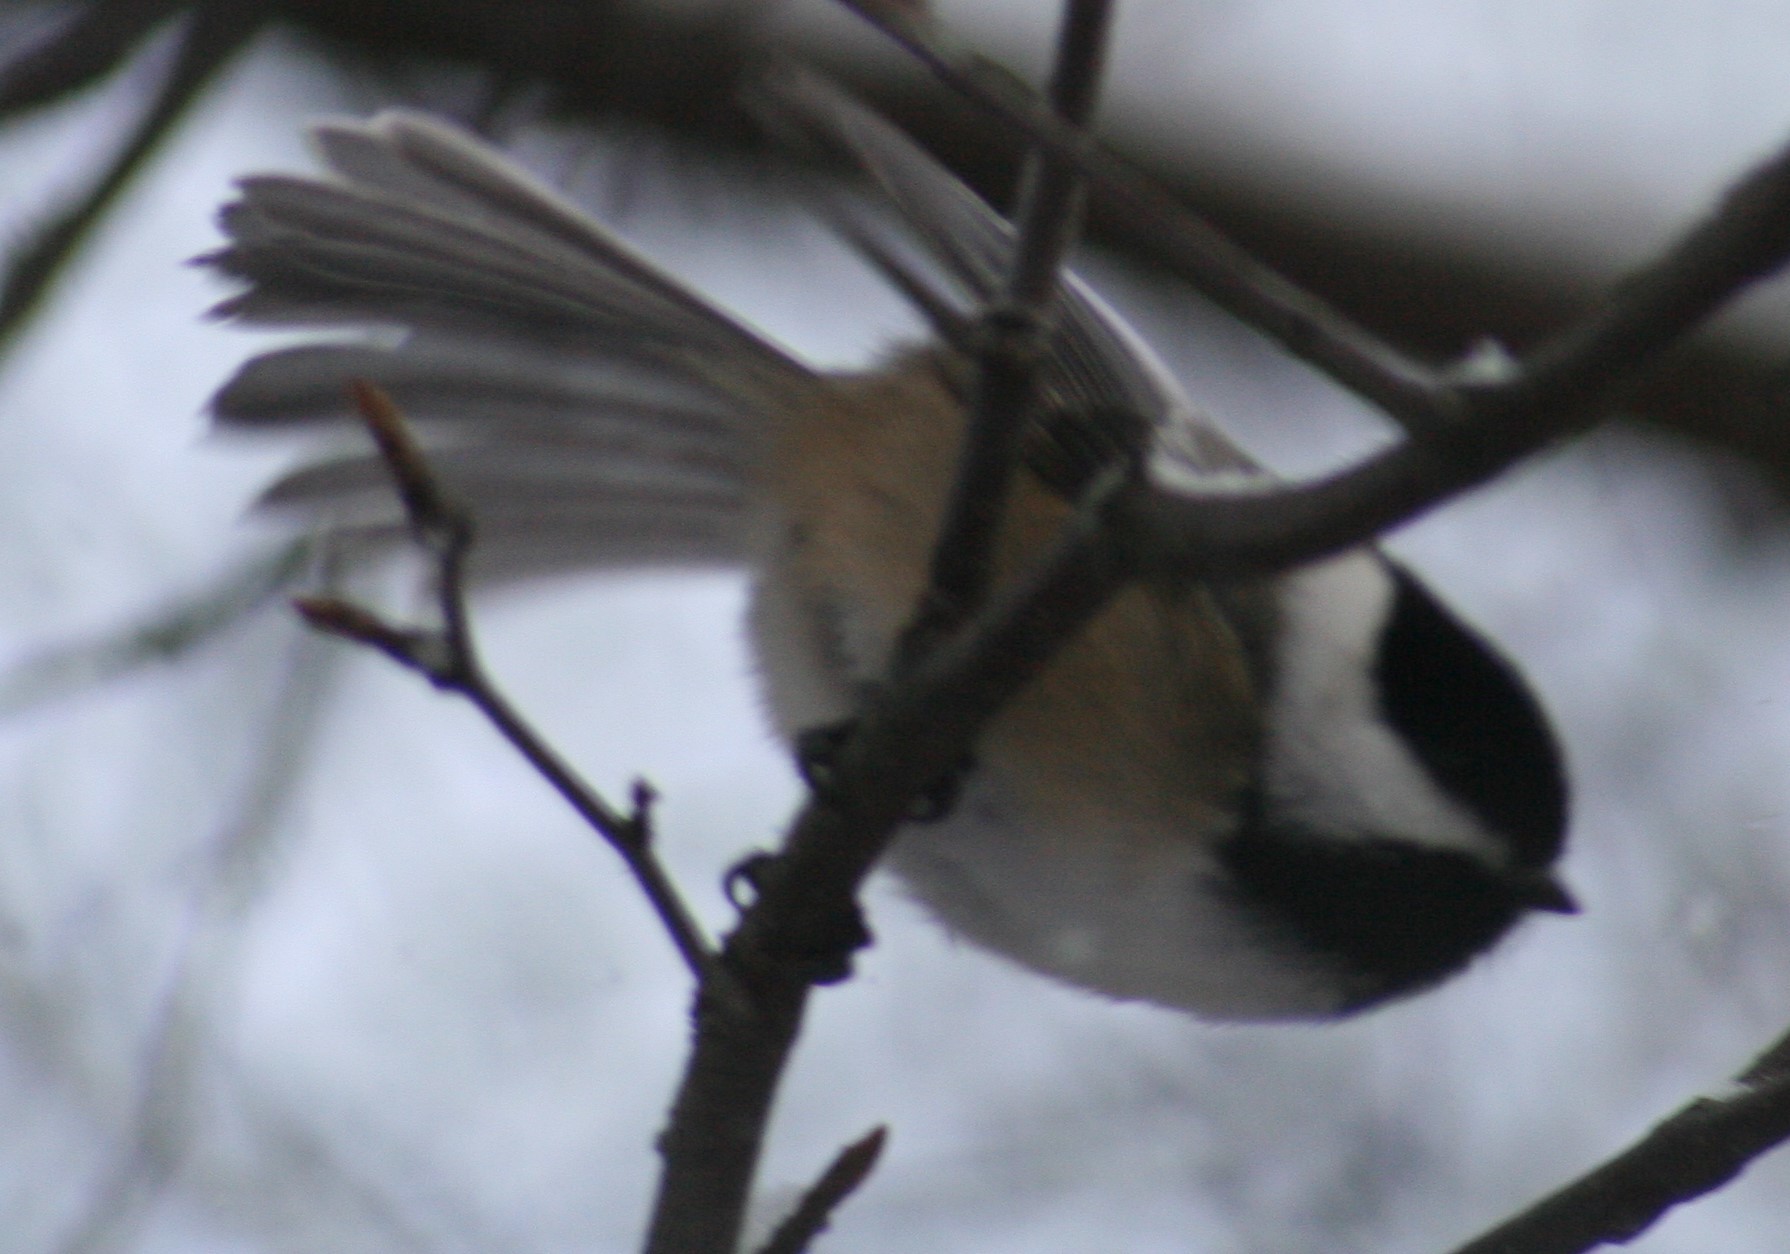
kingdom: Animalia
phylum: Chordata
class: Aves
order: Passeriformes
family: Paridae
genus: Poecile
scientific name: Poecile atricapillus
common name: Black-capped chickadee
